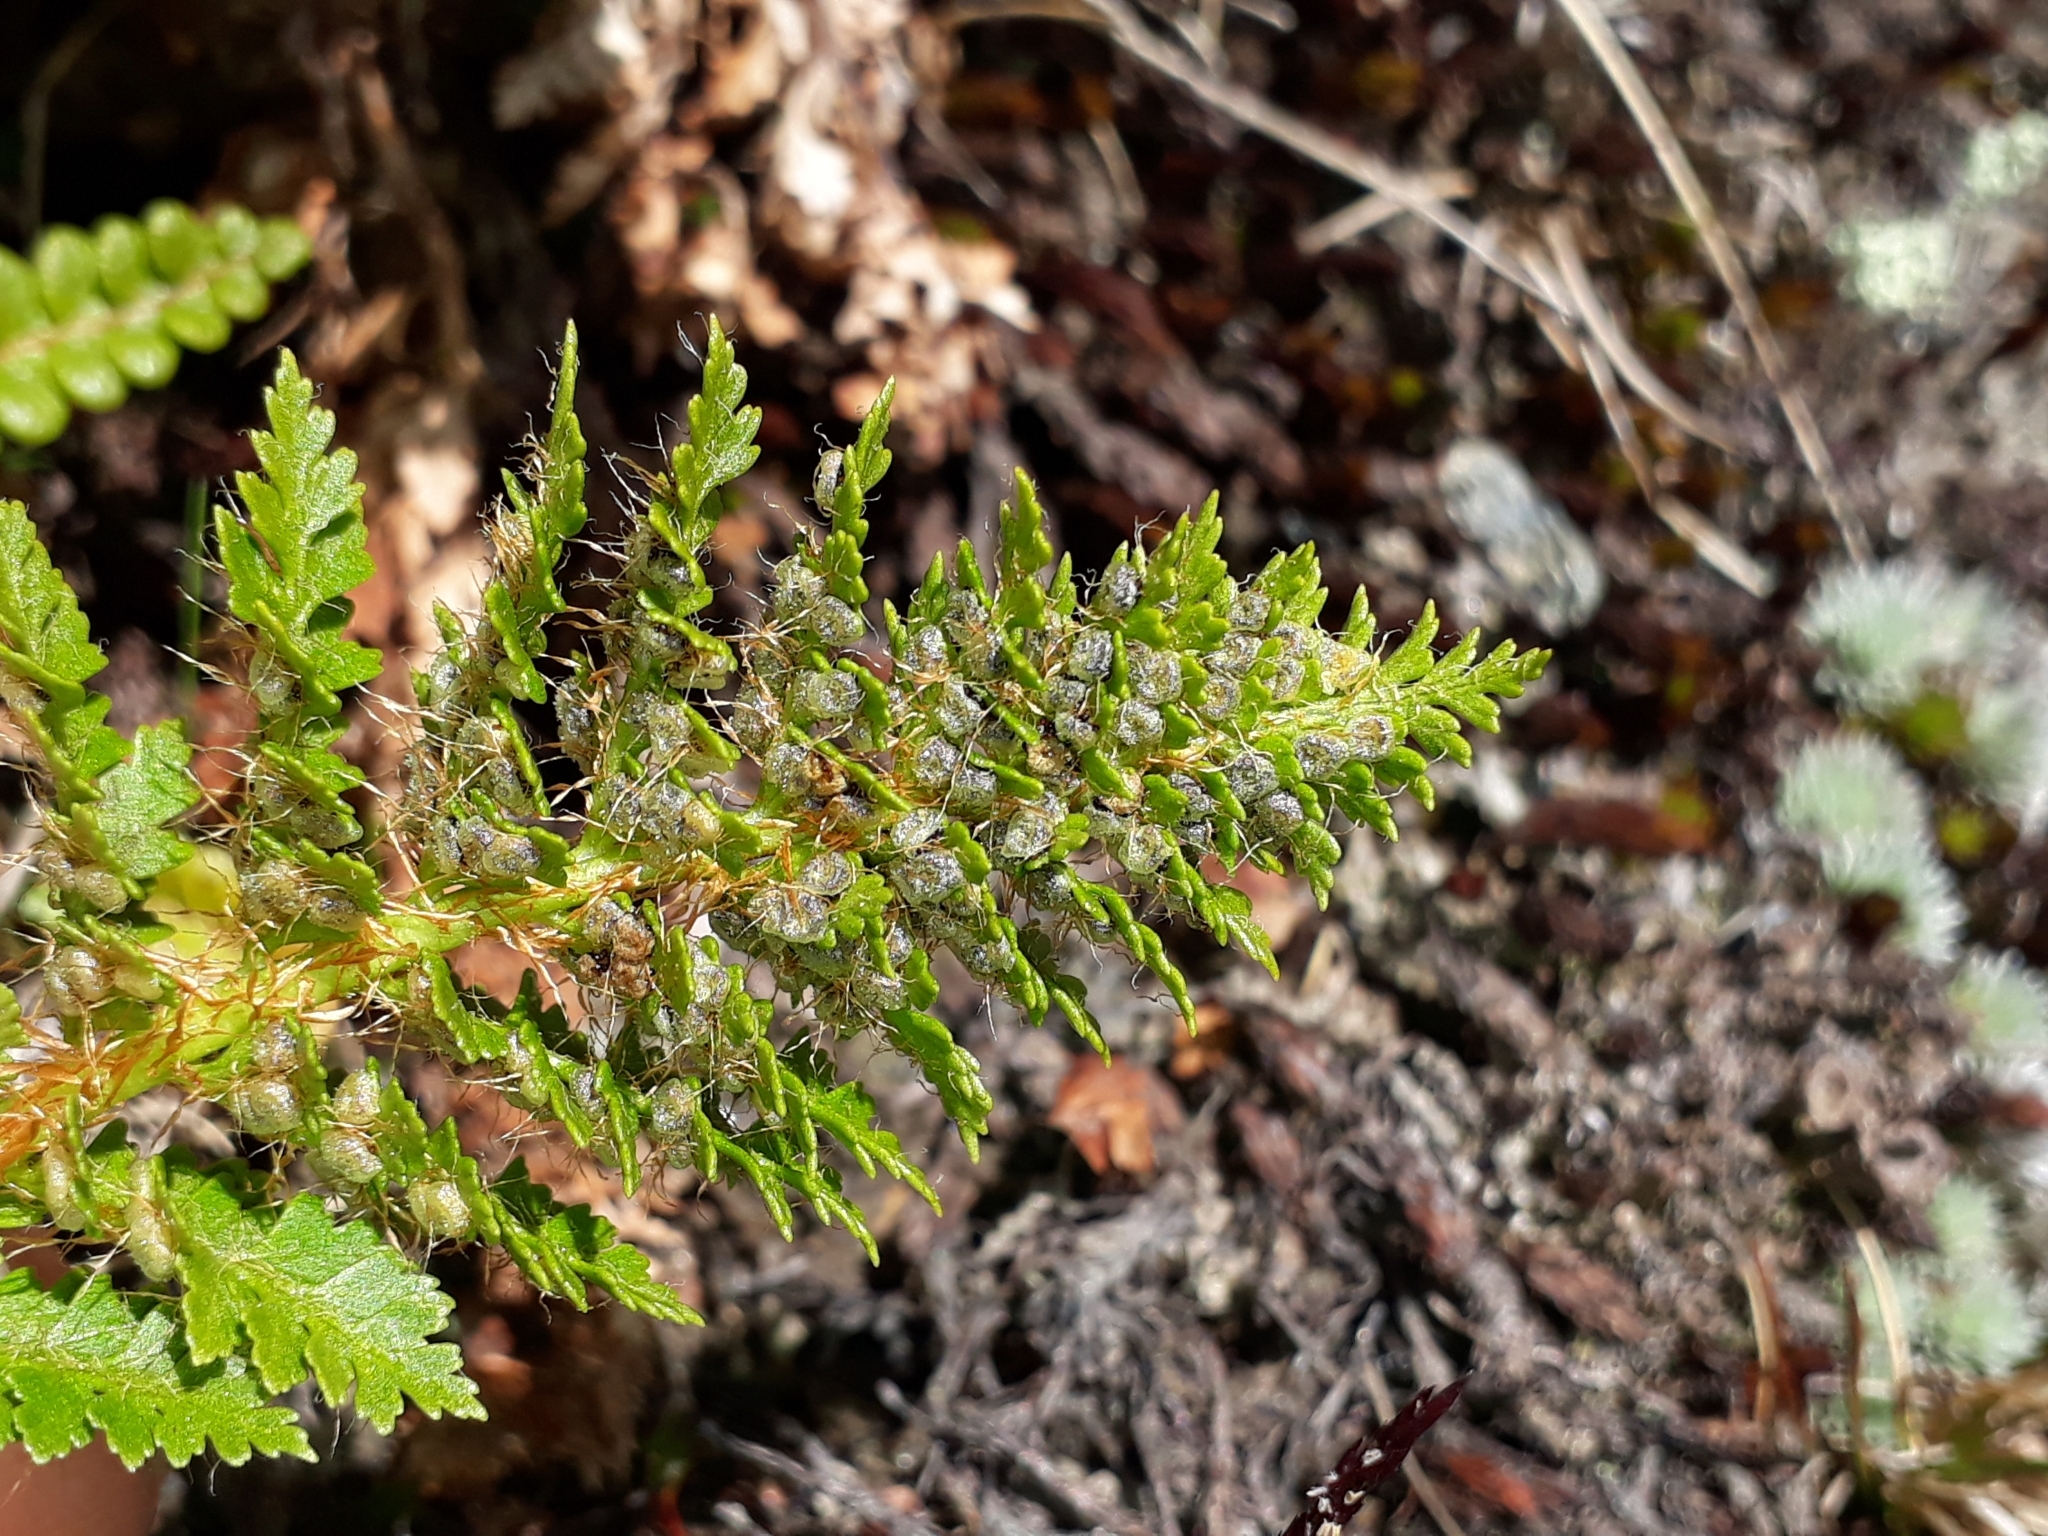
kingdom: Plantae
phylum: Tracheophyta
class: Polypodiopsida
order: Polypodiales
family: Dryopteridaceae
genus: Polystichum
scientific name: Polystichum cystostegia
